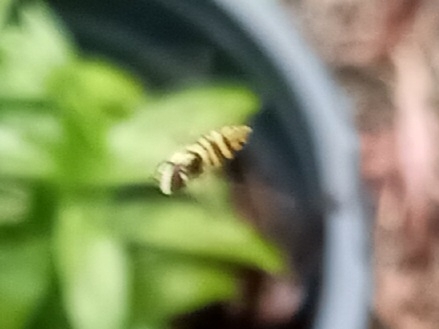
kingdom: Animalia
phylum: Arthropoda
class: Insecta
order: Diptera
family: Syrphidae
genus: Allograpta
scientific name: Allograpta obliqua
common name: Common oblique syrphid
